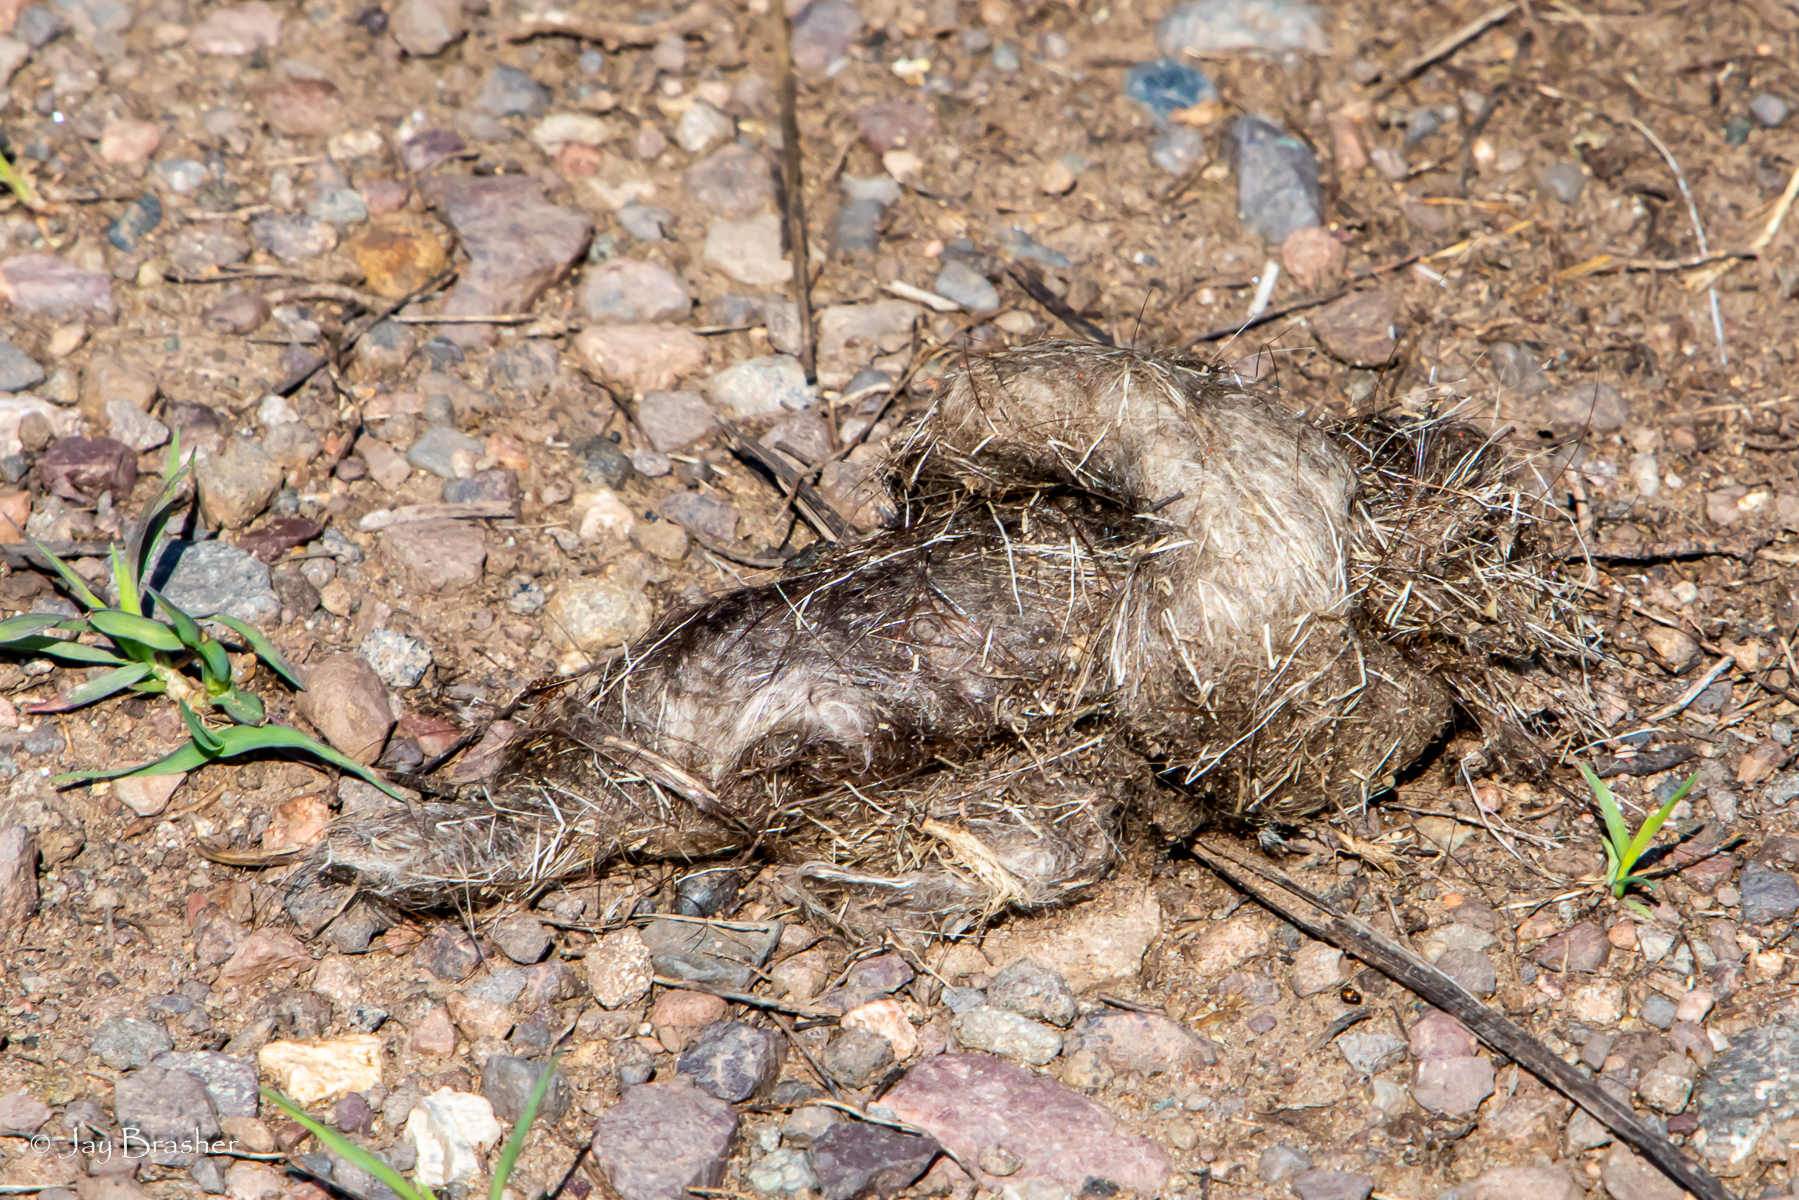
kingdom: Animalia
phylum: Chordata
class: Mammalia
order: Carnivora
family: Canidae
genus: Canis
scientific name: Canis lupus
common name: Gray wolf
